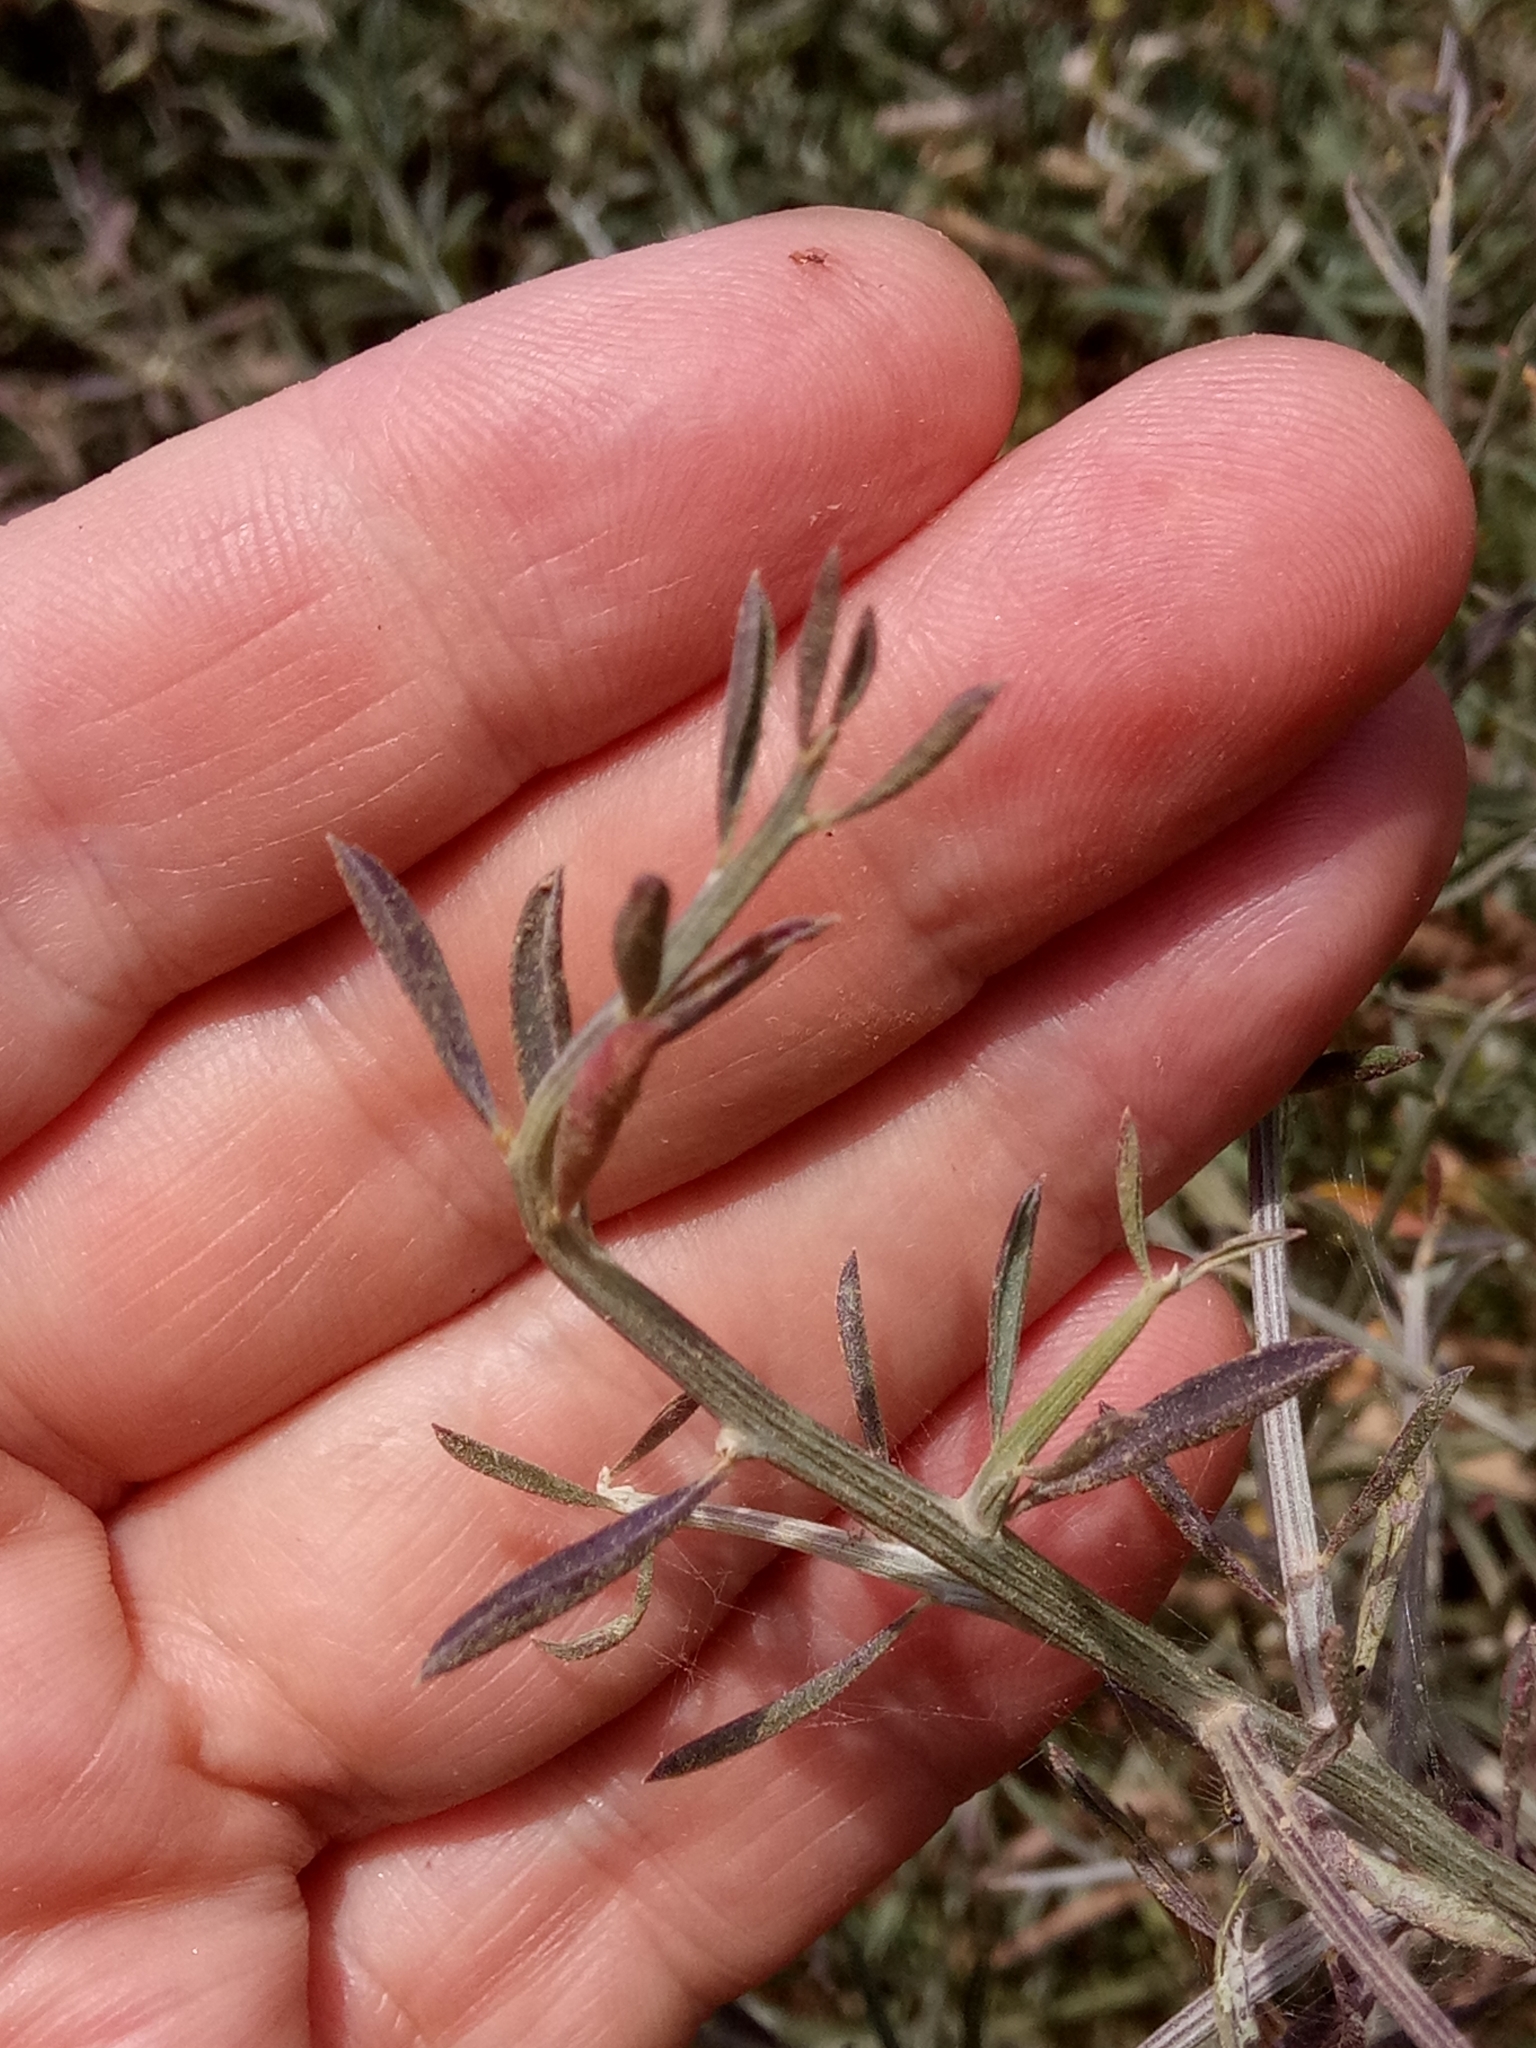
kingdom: Plantae
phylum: Tracheophyta
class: Magnoliopsida
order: Fabales
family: Fabaceae
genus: Genista
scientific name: Genista ferox
